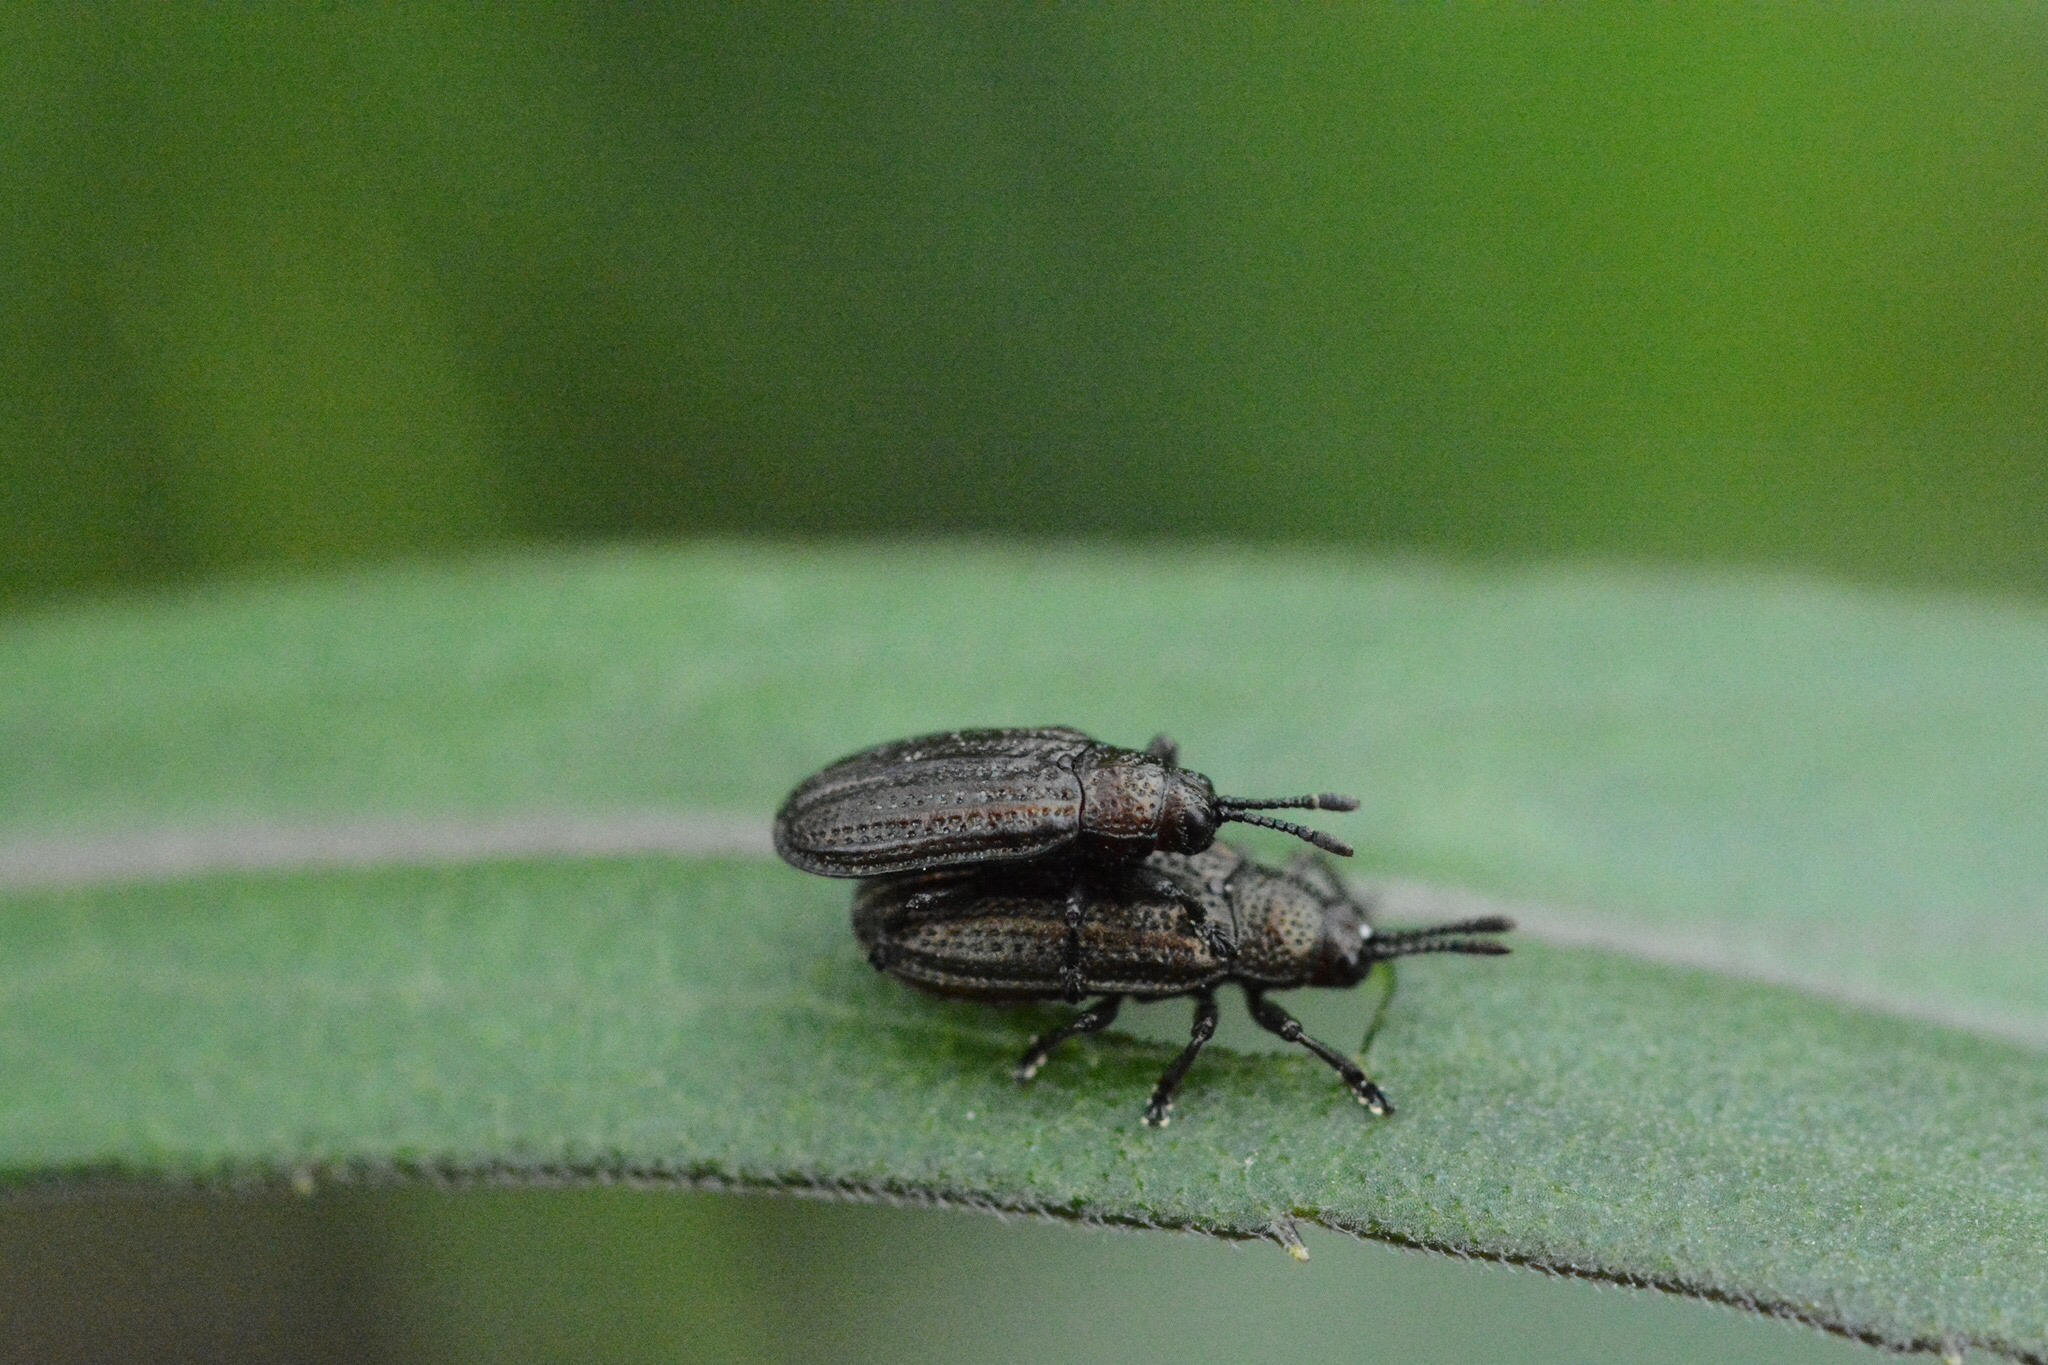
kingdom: Animalia
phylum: Arthropoda
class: Insecta
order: Coleoptera
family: Chrysomelidae
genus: Microrhopala
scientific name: Microrhopala vittata
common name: Goldenrod leaf miner beetle
